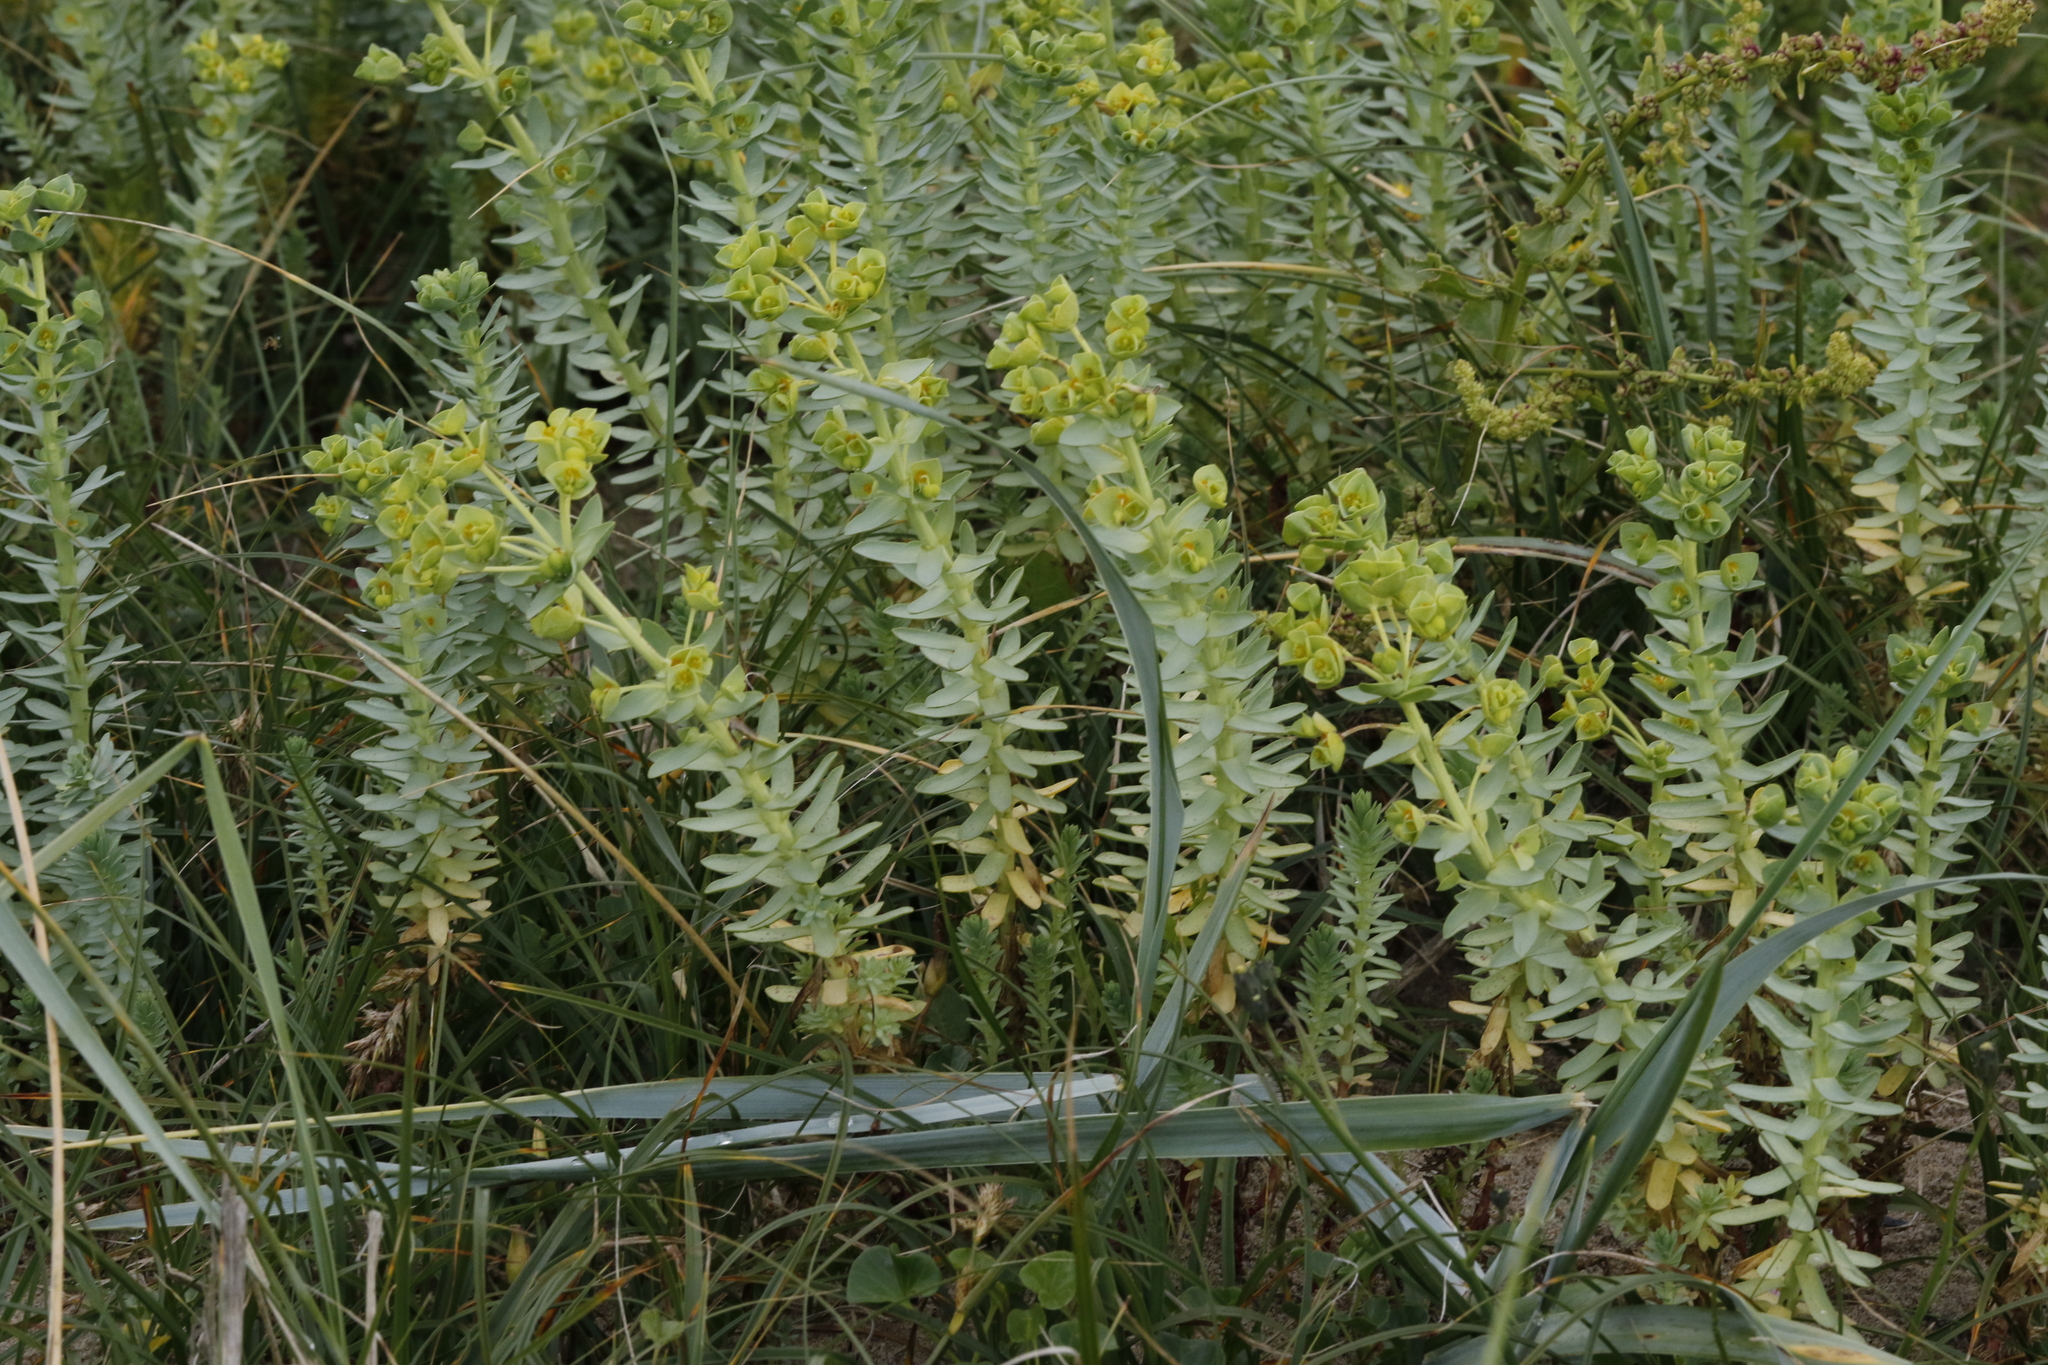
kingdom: Plantae
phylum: Tracheophyta
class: Magnoliopsida
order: Malpighiales
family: Euphorbiaceae
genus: Euphorbia
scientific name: Euphorbia paralias
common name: Sea spurge
